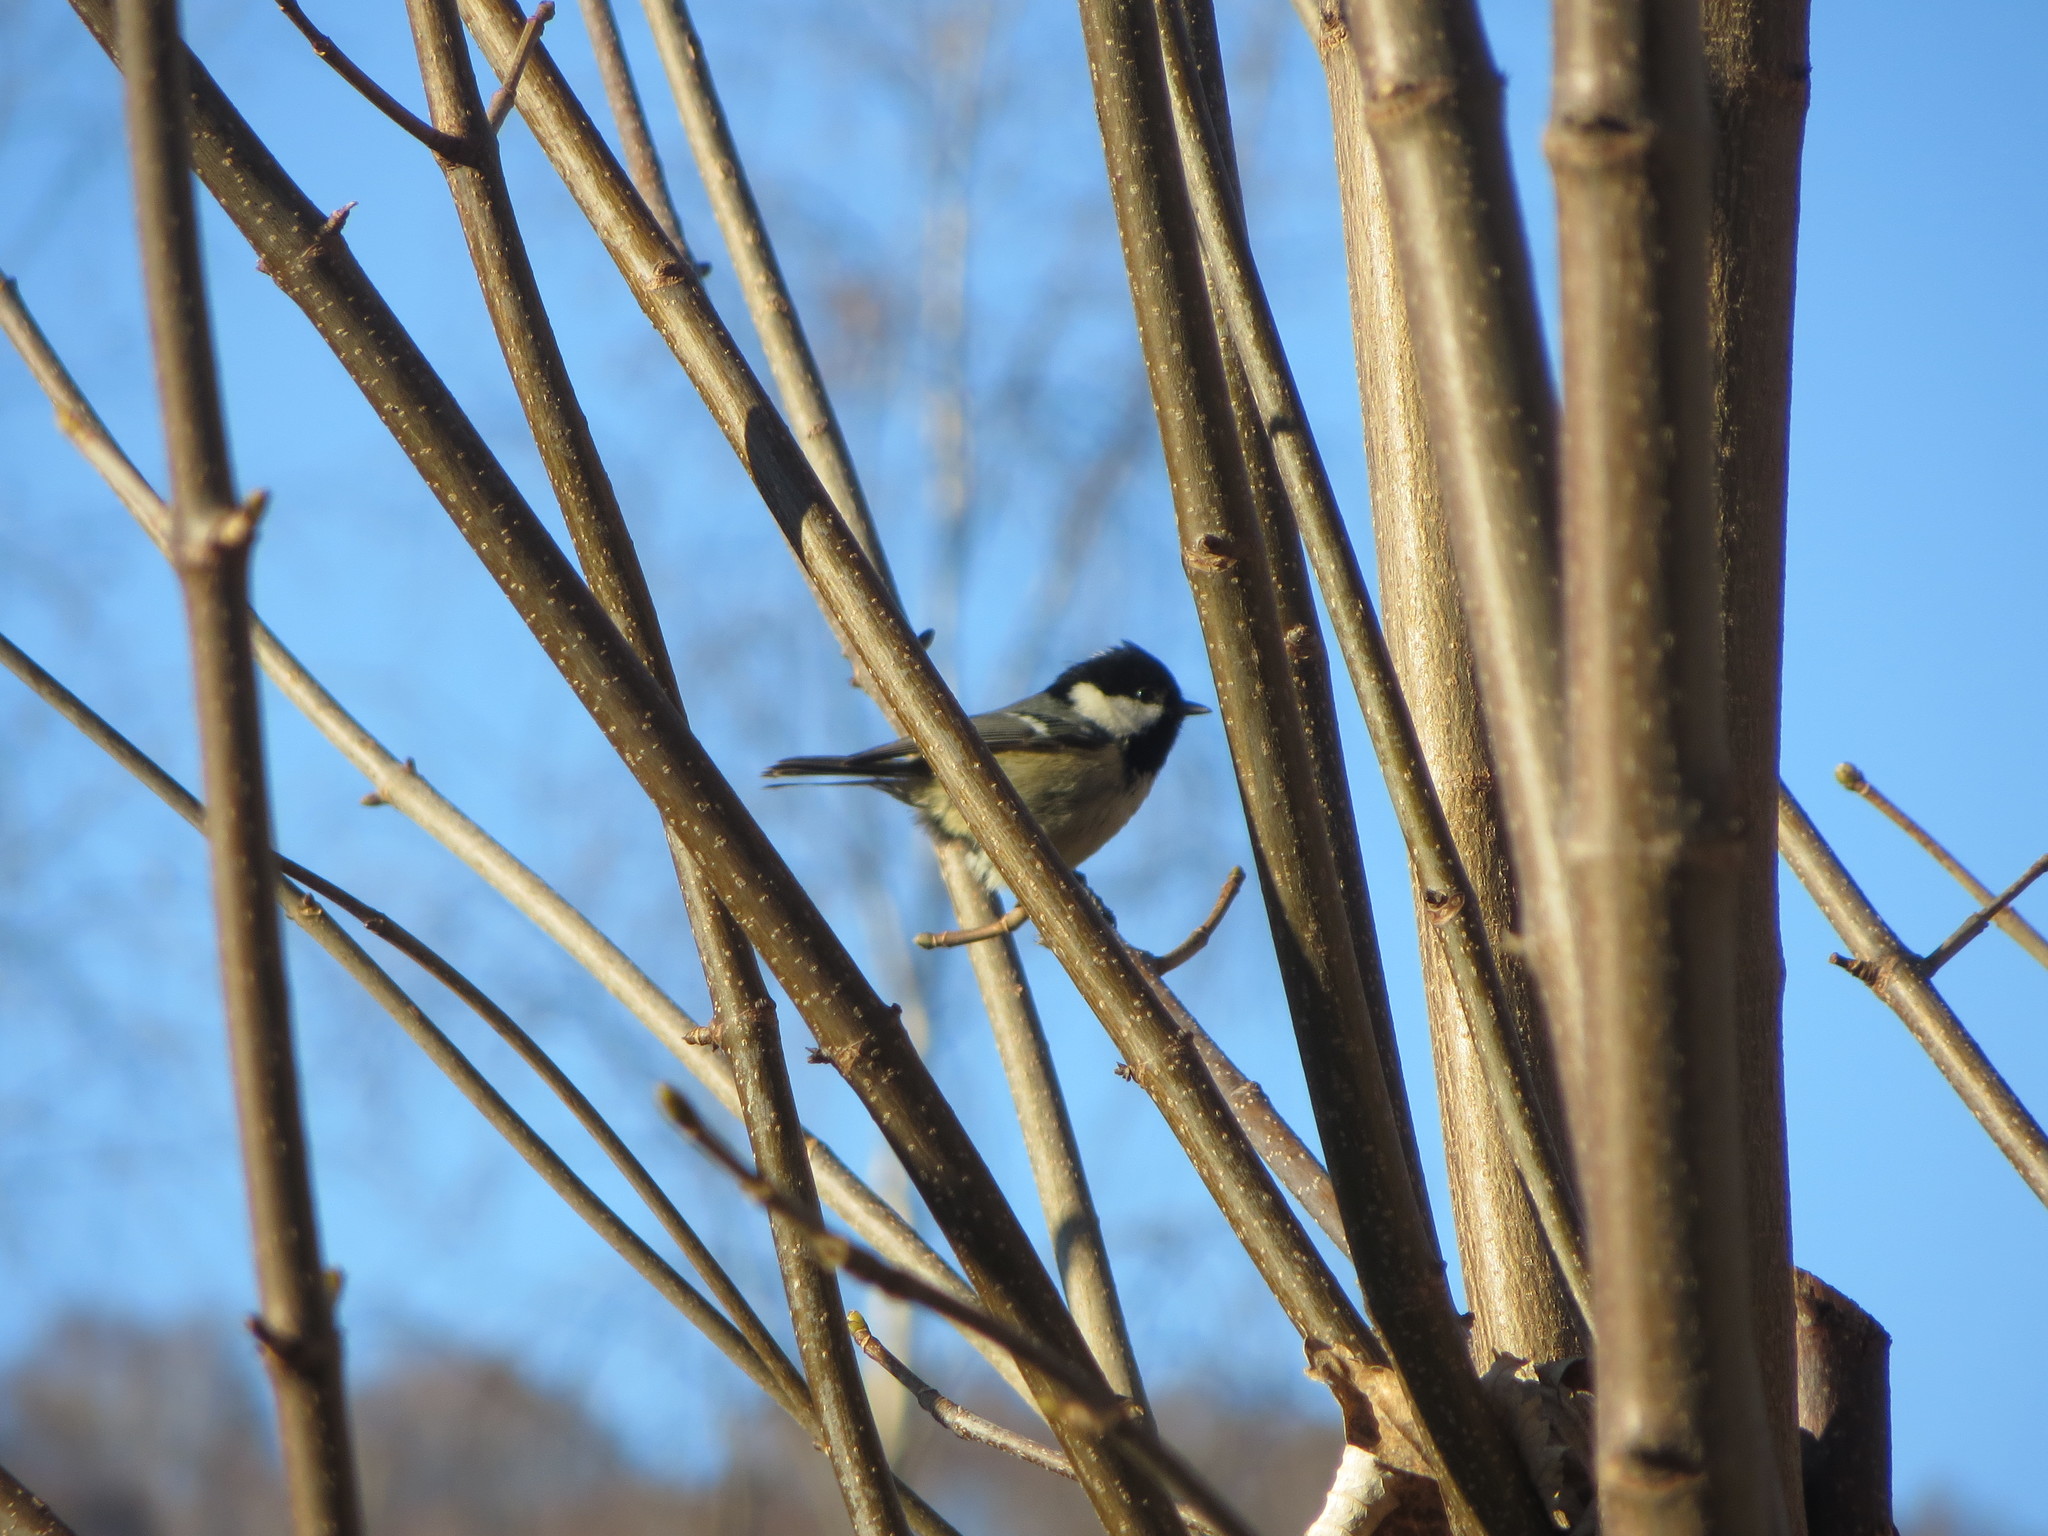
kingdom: Animalia
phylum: Chordata
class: Aves
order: Passeriformes
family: Paridae
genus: Periparus
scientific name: Periparus ater
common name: Coal tit
